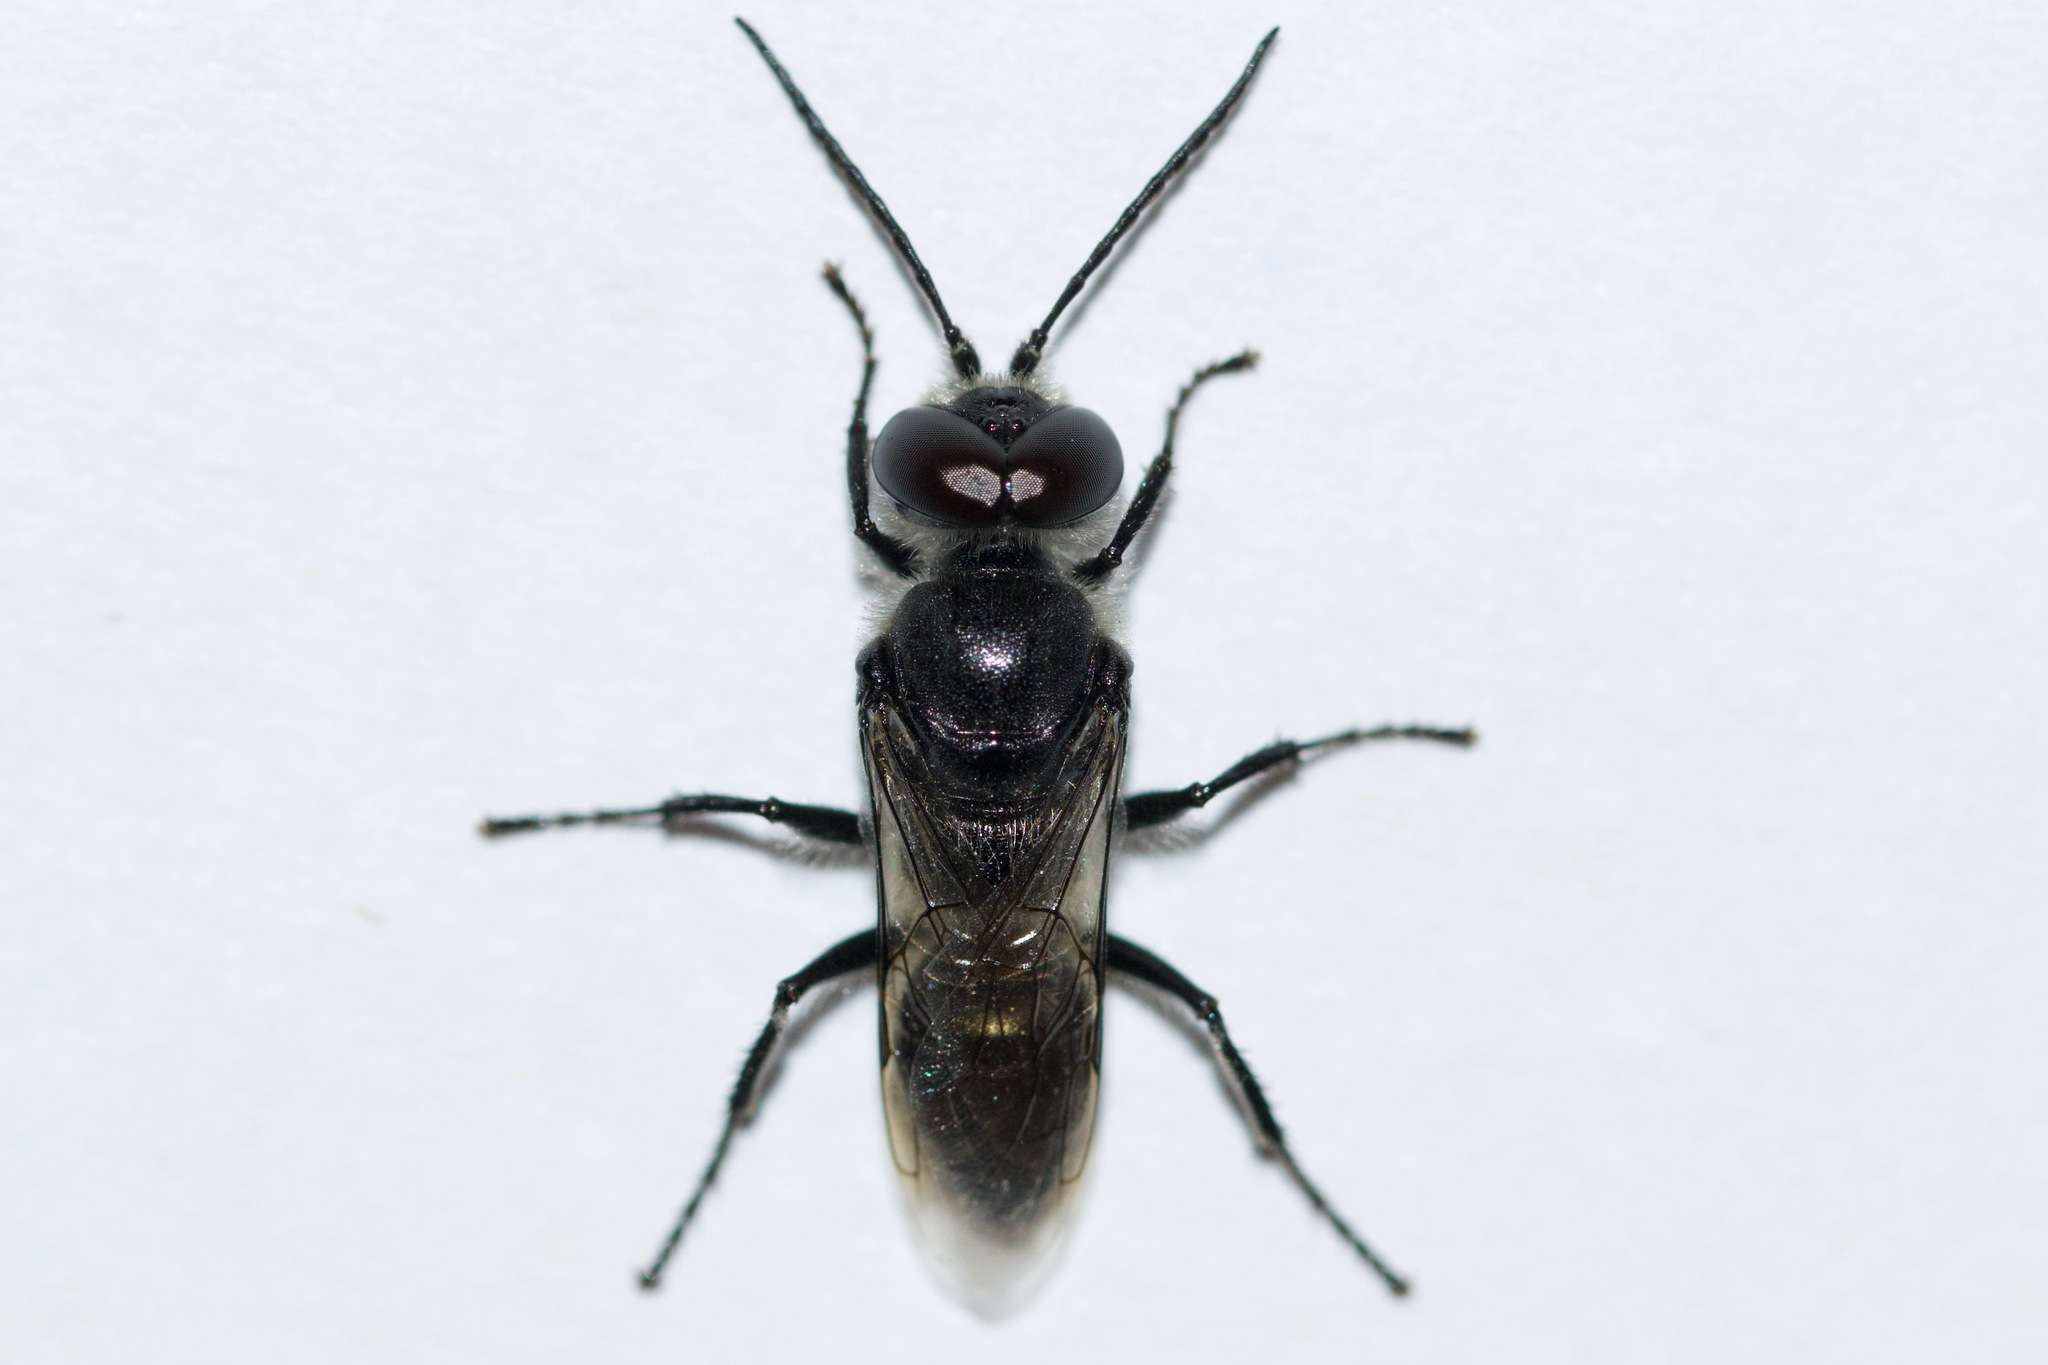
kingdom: Animalia
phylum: Arthropoda
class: Insecta
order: Hymenoptera
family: Crabronidae
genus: Astata
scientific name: Astata unicolor
